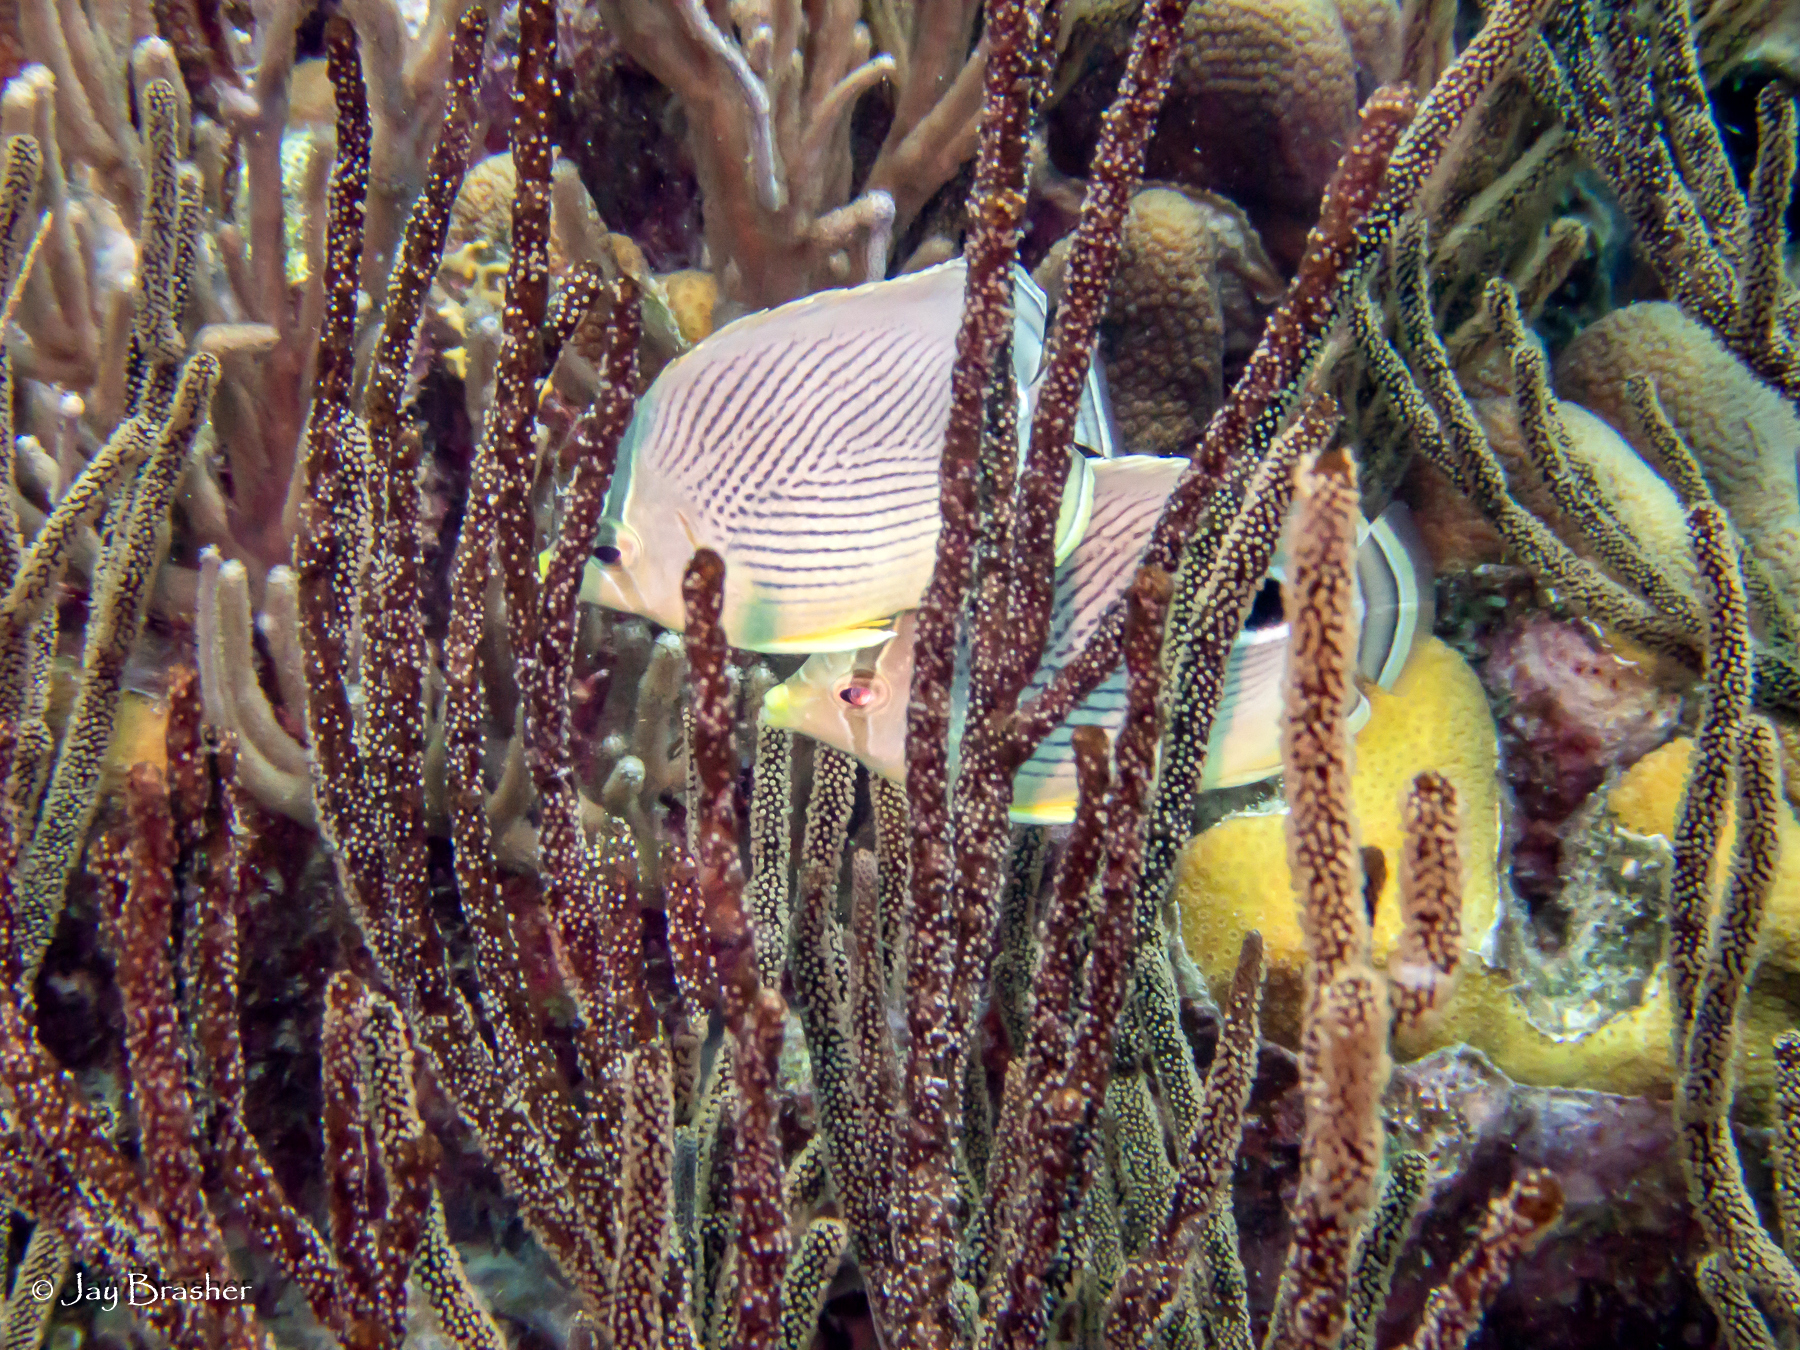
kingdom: Animalia
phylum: Chordata
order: Perciformes
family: Chaetodontidae
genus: Chaetodon
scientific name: Chaetodon capistratus
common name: Kete
